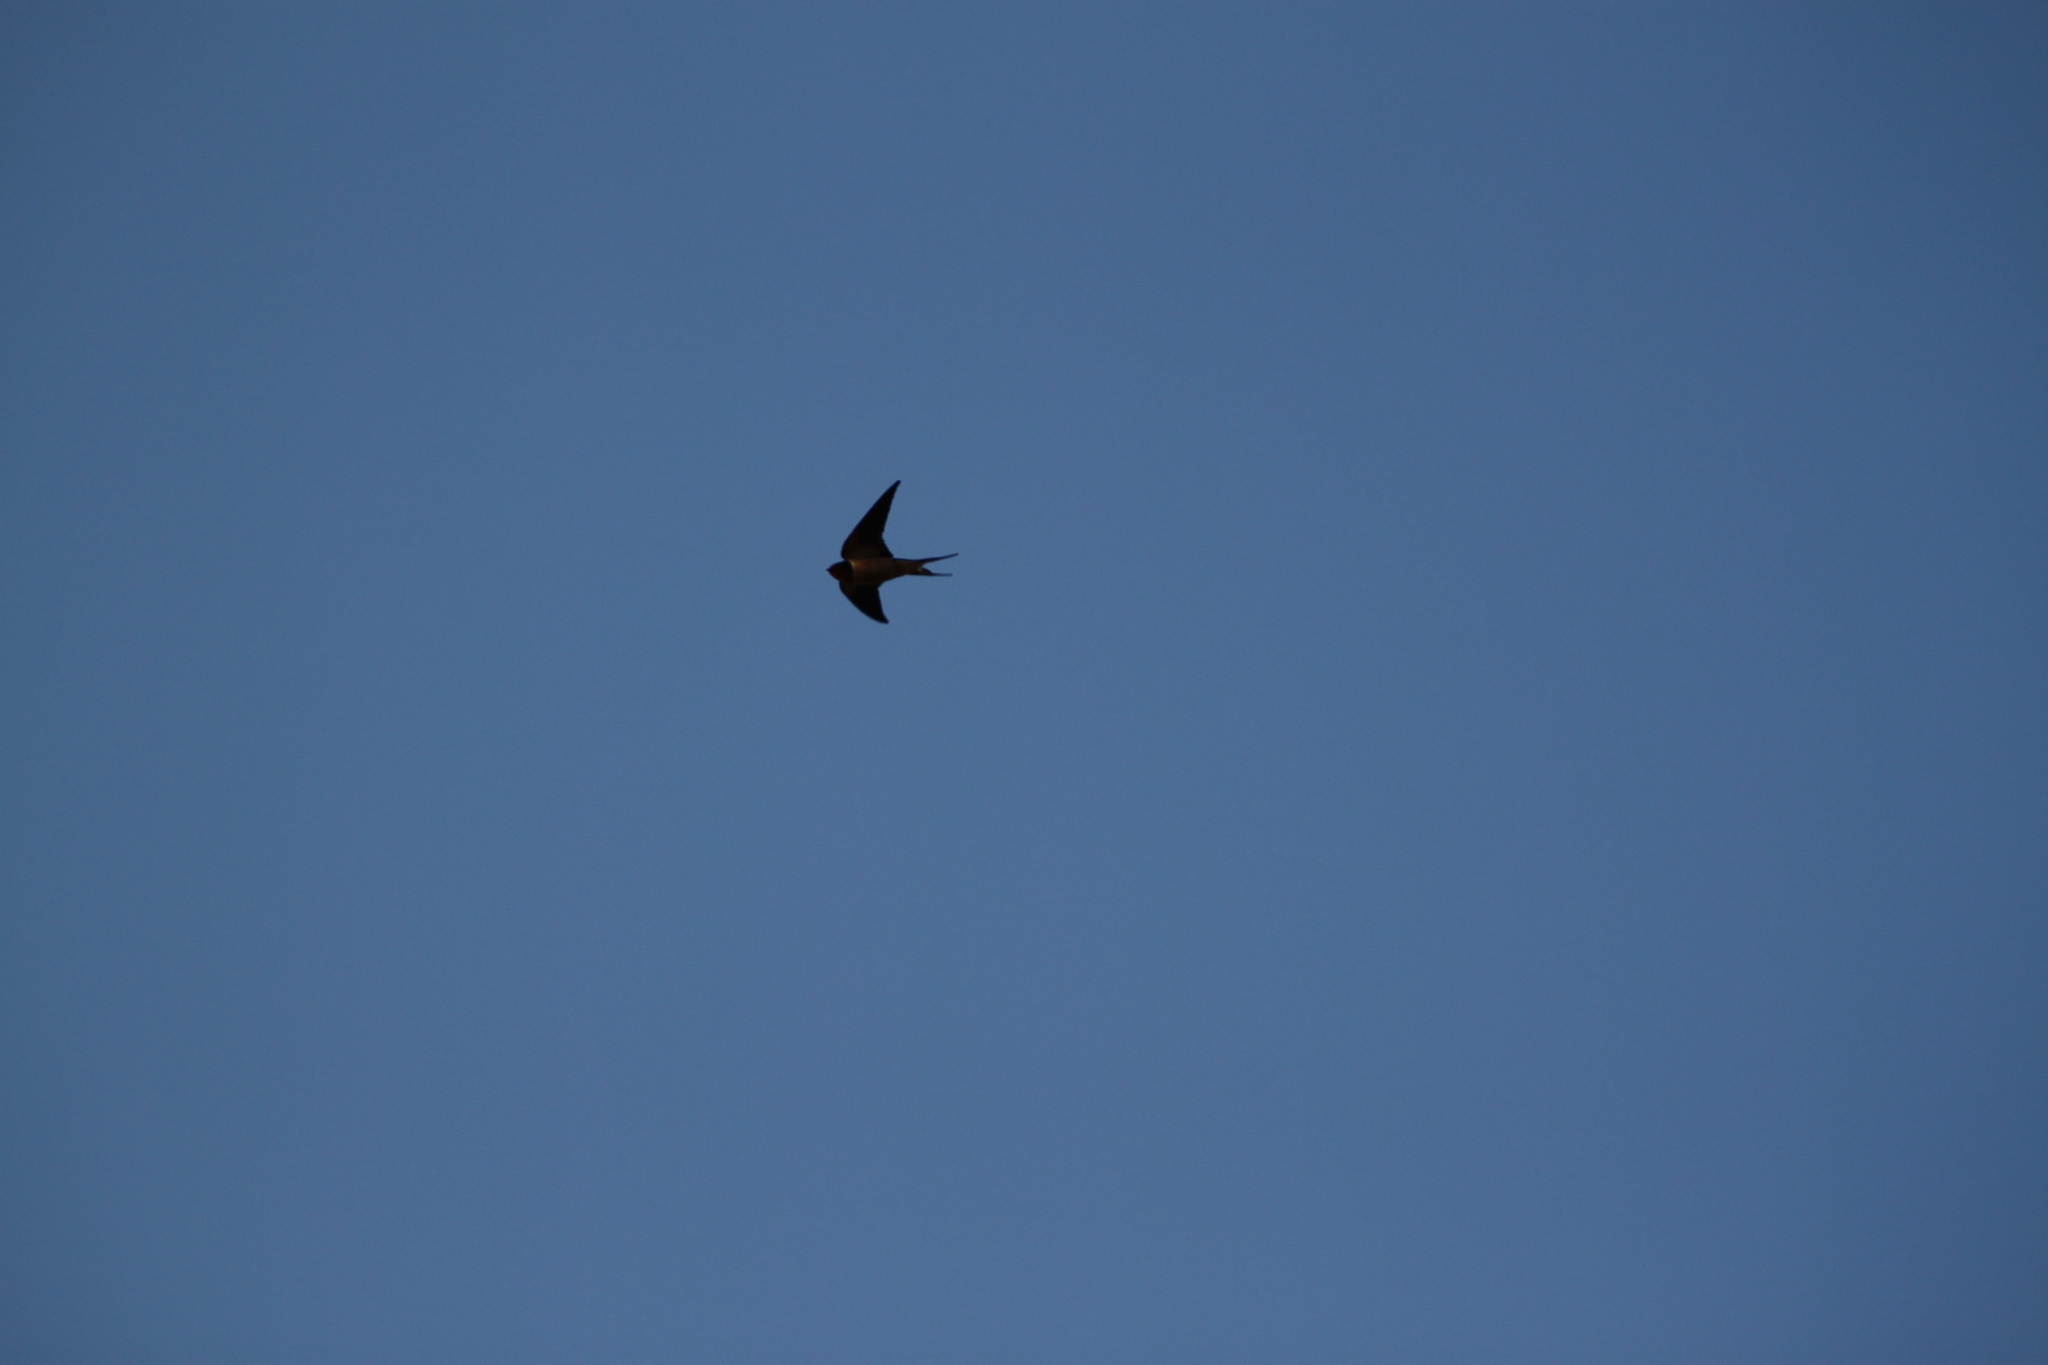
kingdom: Animalia
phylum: Chordata
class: Aves
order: Passeriformes
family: Hirundinidae
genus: Hirundo
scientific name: Hirundo rustica
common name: Barn swallow
